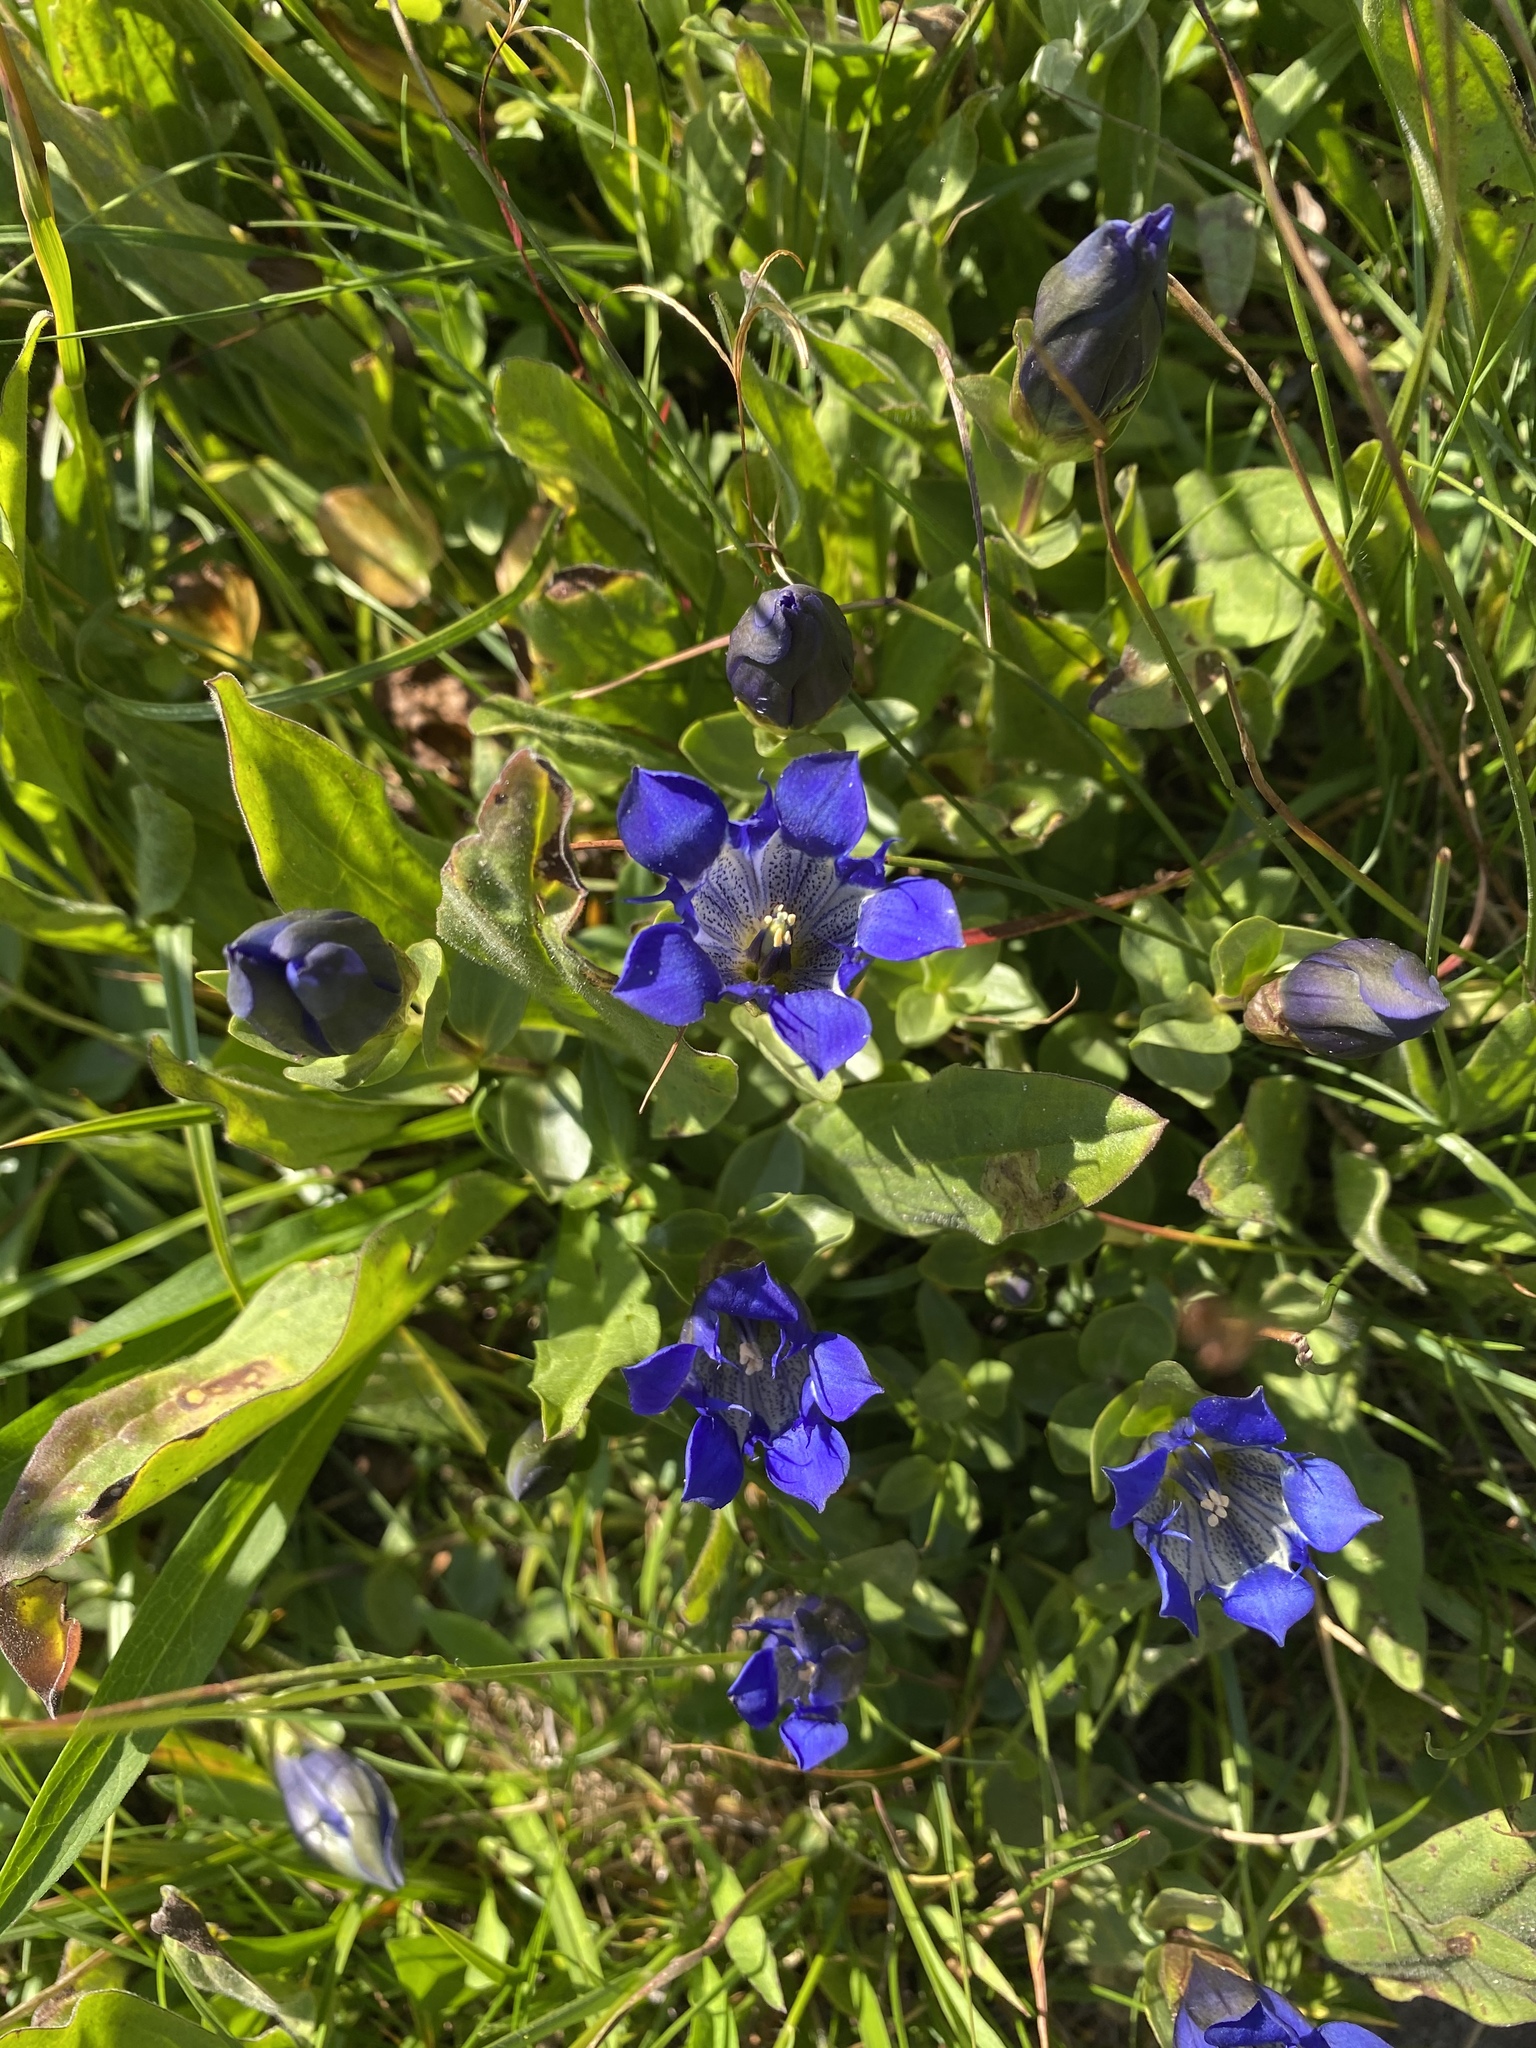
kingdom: Plantae
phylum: Tracheophyta
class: Magnoliopsida
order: Gentianales
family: Gentianaceae
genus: Gentiana
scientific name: Gentiana calycosa
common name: Rainier pleated gentian
